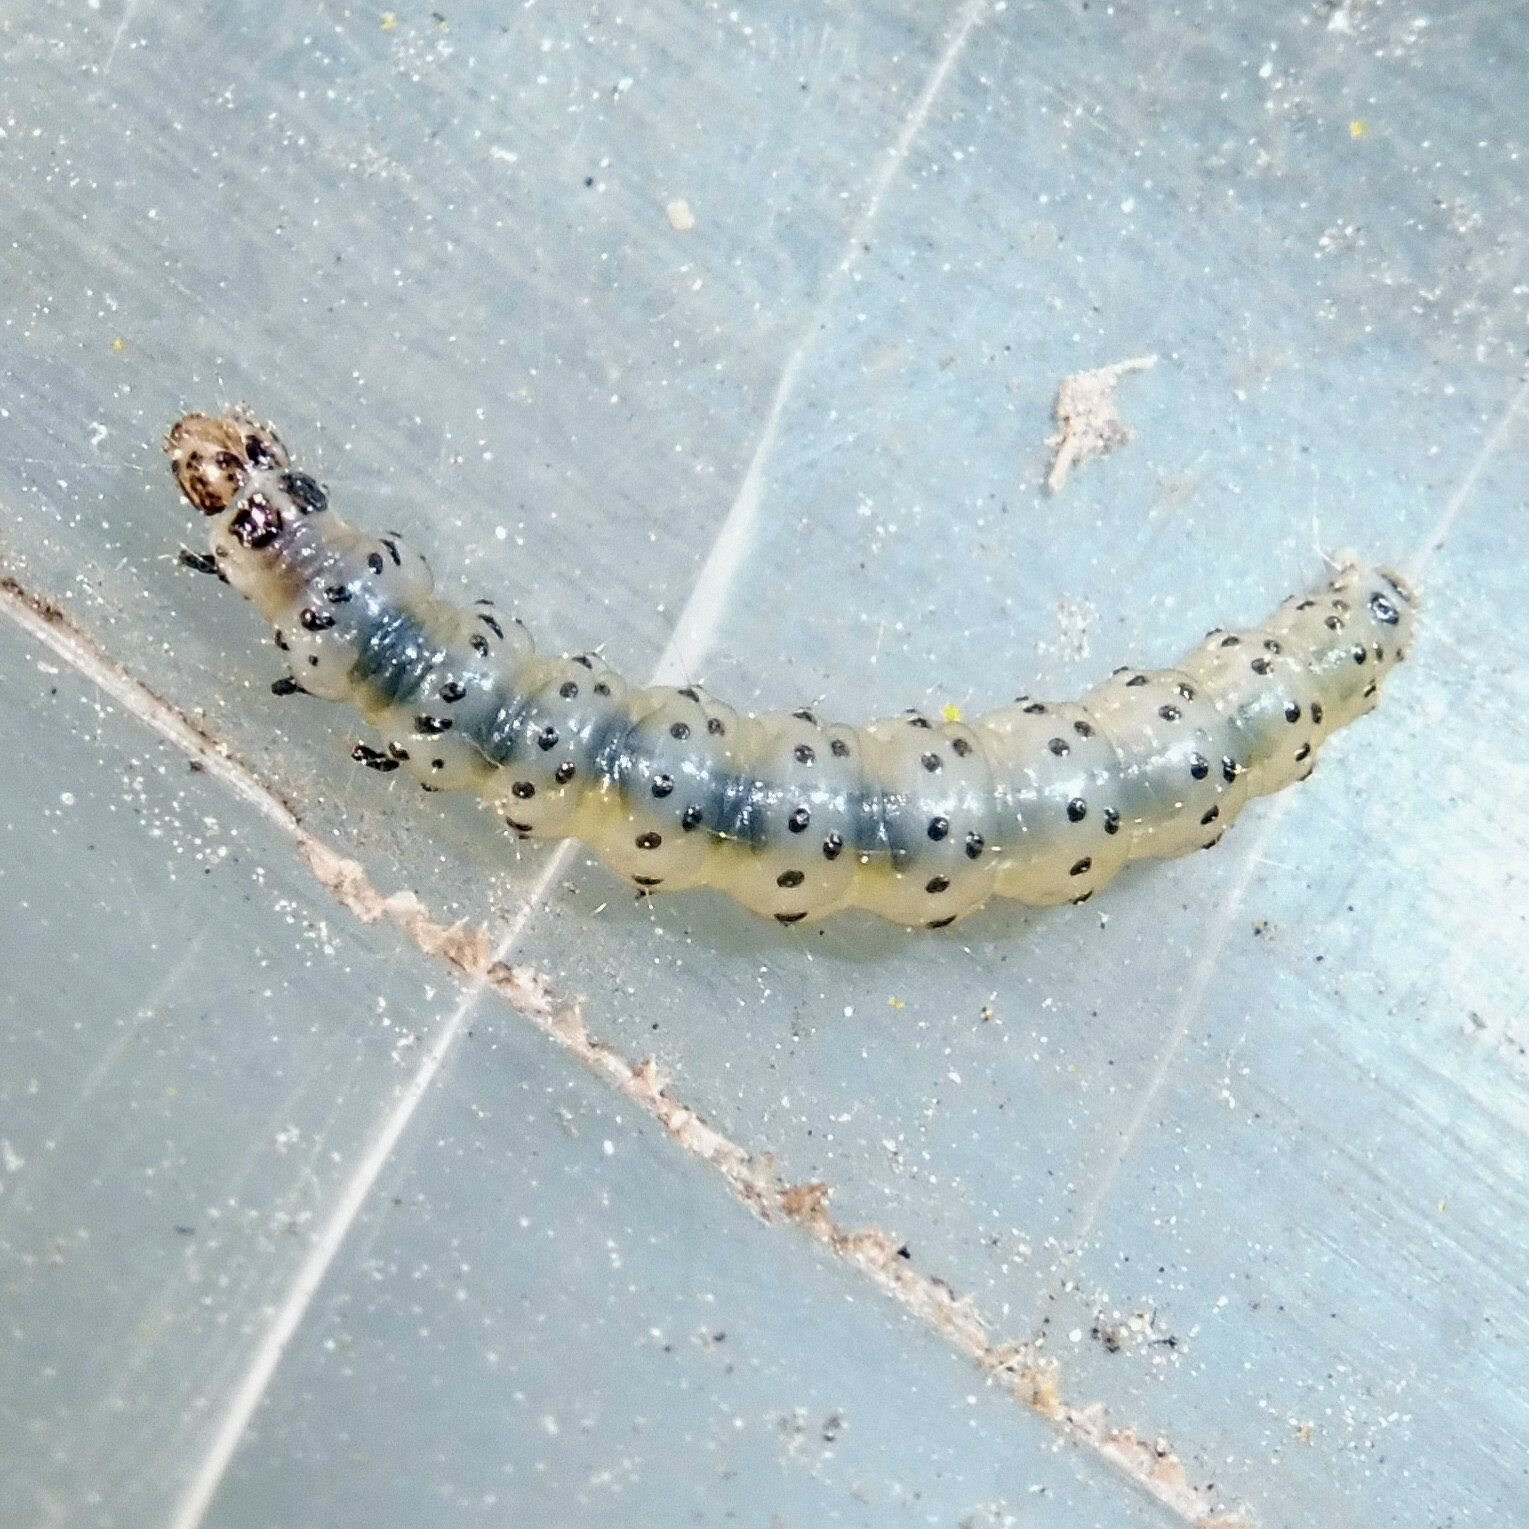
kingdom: Animalia
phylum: Arthropoda
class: Insecta
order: Lepidoptera
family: Choreutidae
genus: Anthophila
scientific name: Anthophila fabriciana
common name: Nettle-tap
